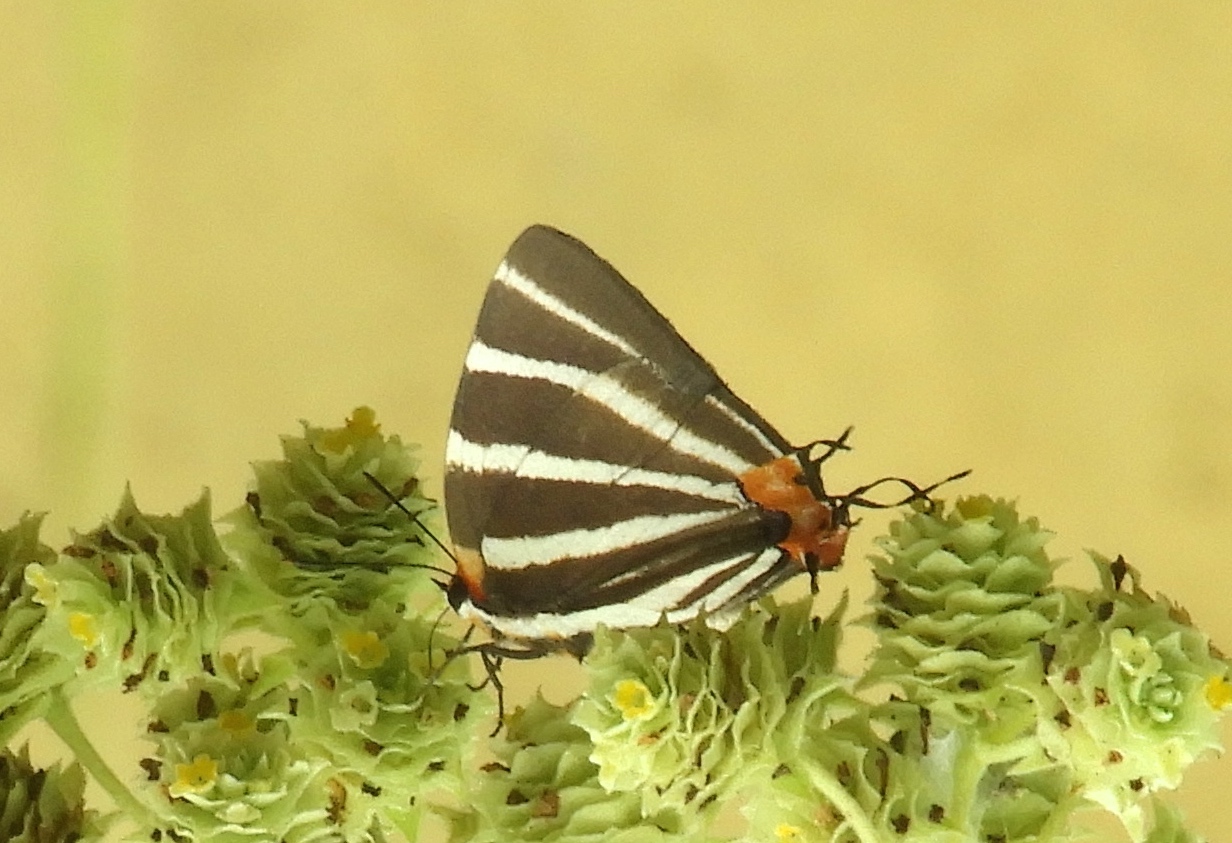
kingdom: Animalia
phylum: Arthropoda
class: Insecta
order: Lepidoptera
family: Lycaenidae
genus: Thecla
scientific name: Thecla bathildis
